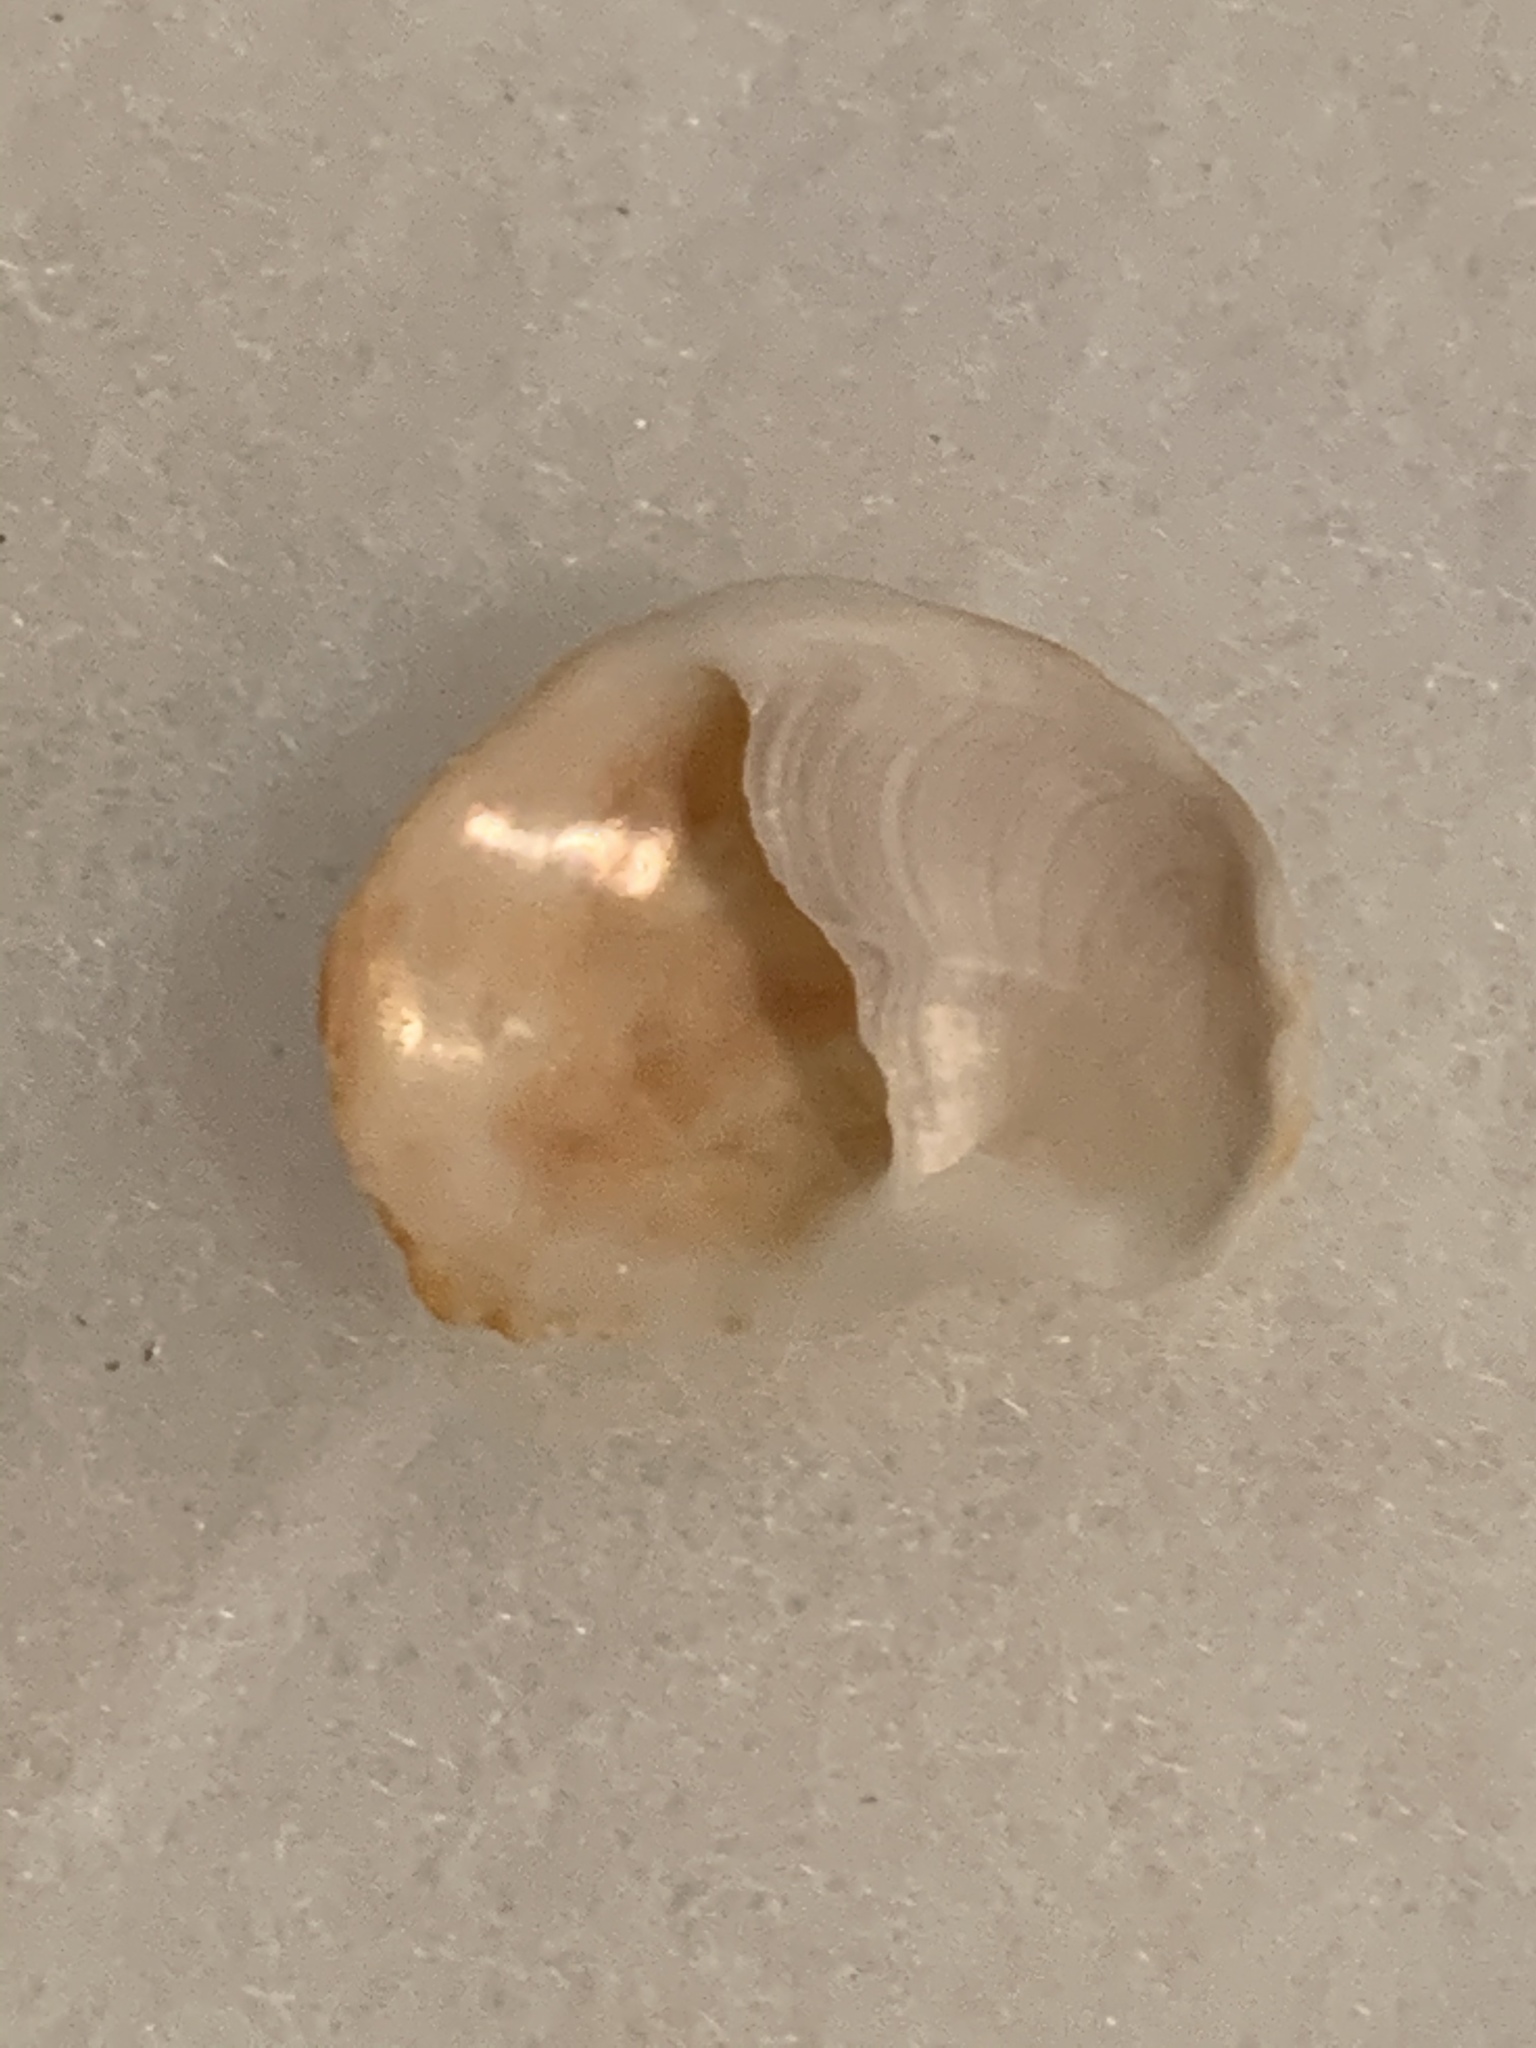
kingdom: Animalia
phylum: Mollusca
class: Gastropoda
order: Littorinimorpha
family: Calyptraeidae
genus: Bostrycapulus
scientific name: Bostrycapulus aculeatus
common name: Spiny slippersnail
